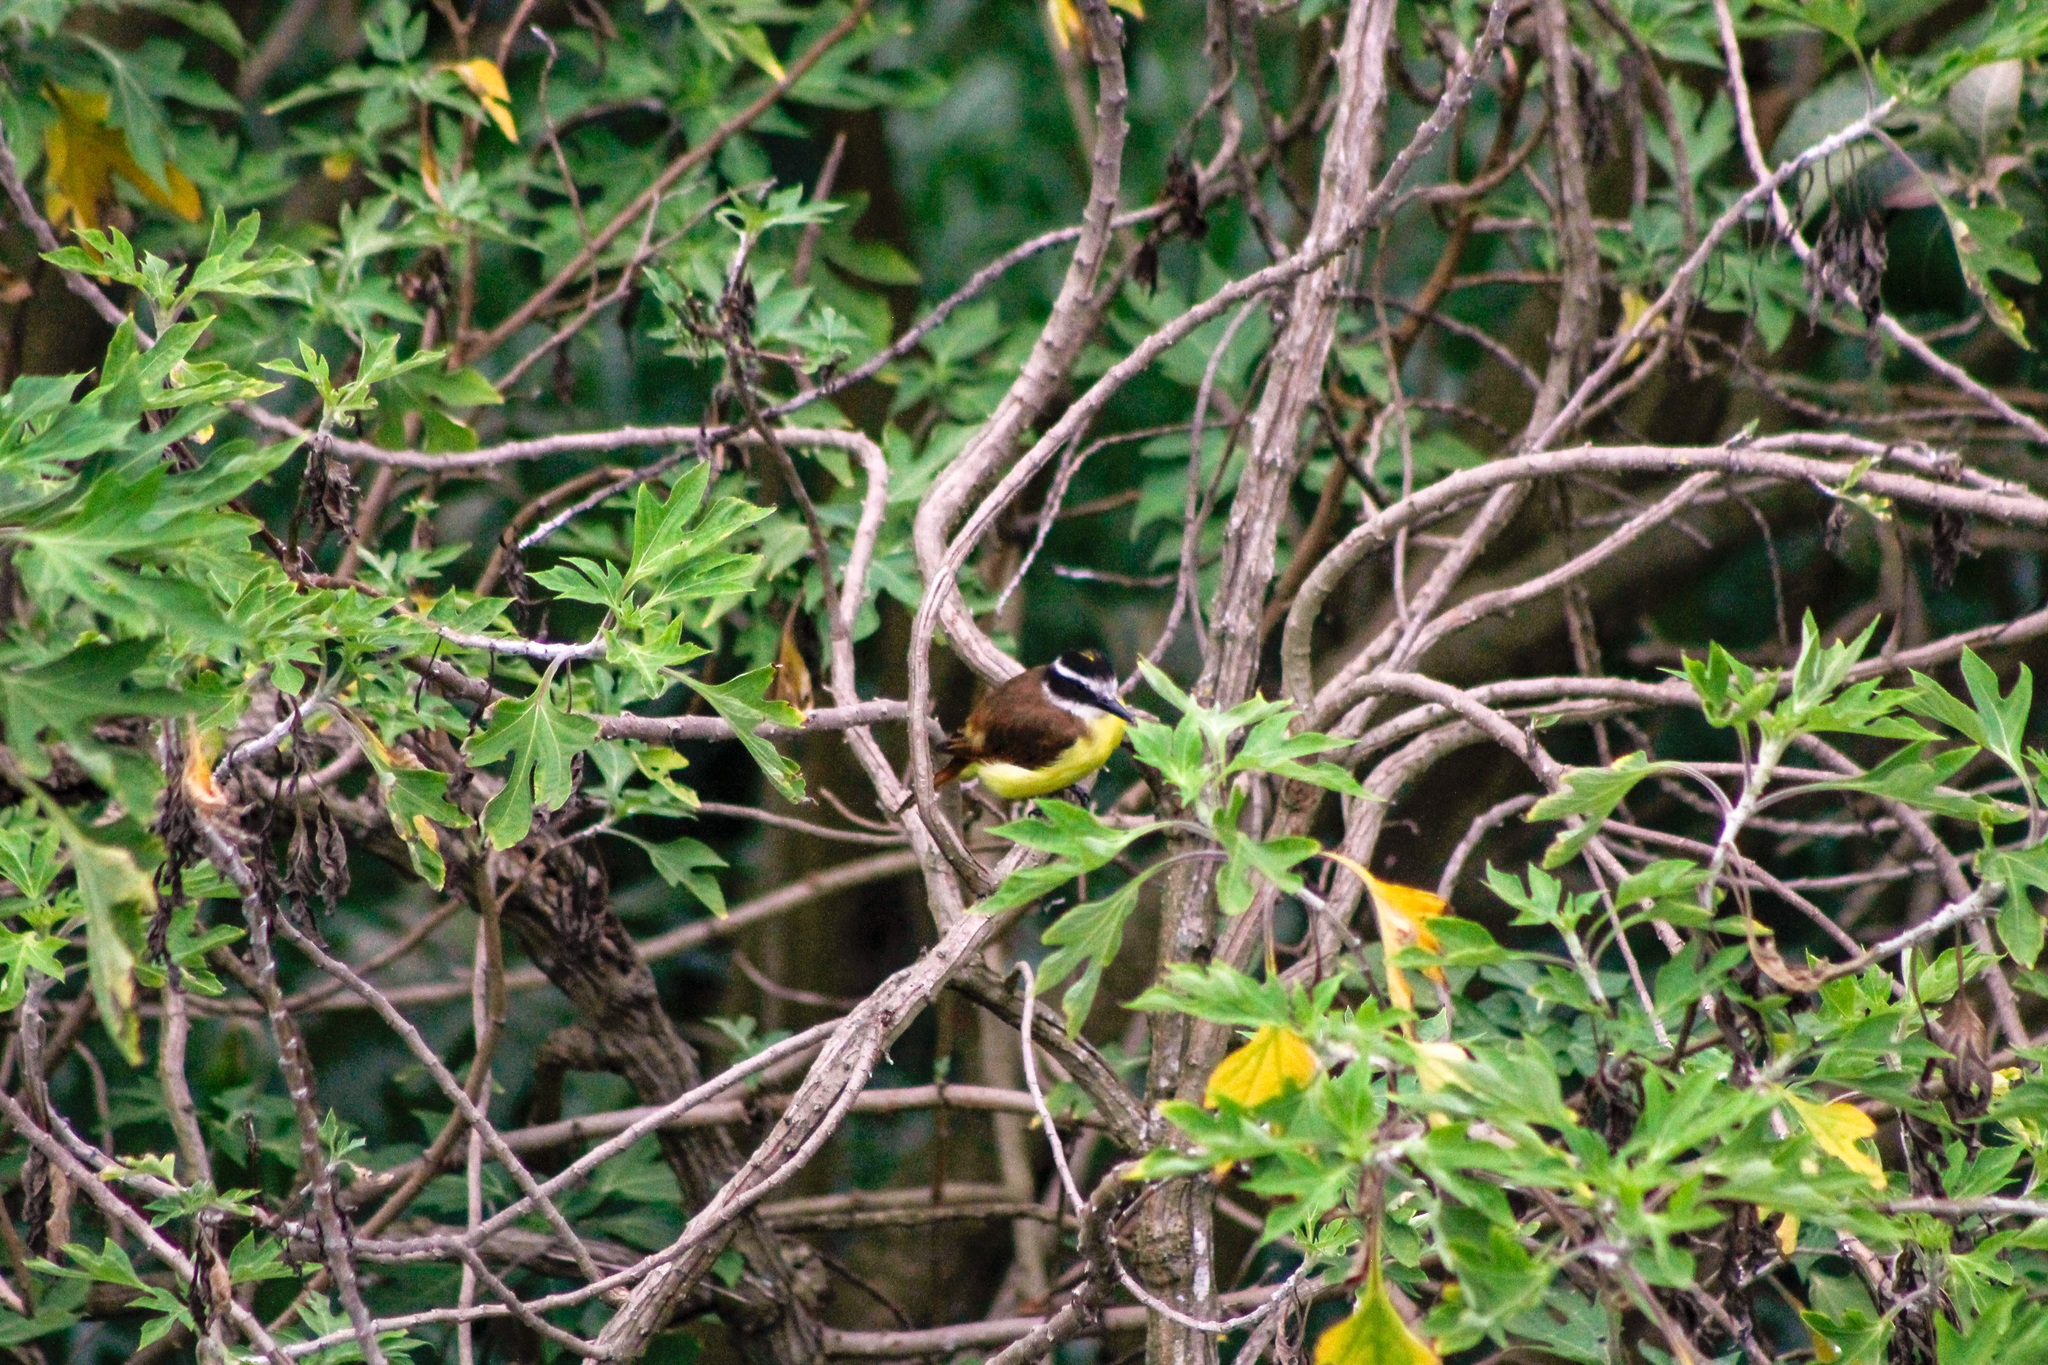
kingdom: Animalia
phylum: Chordata
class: Aves
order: Passeriformes
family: Tyrannidae
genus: Pitangus
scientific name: Pitangus sulphuratus
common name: Great kiskadee
